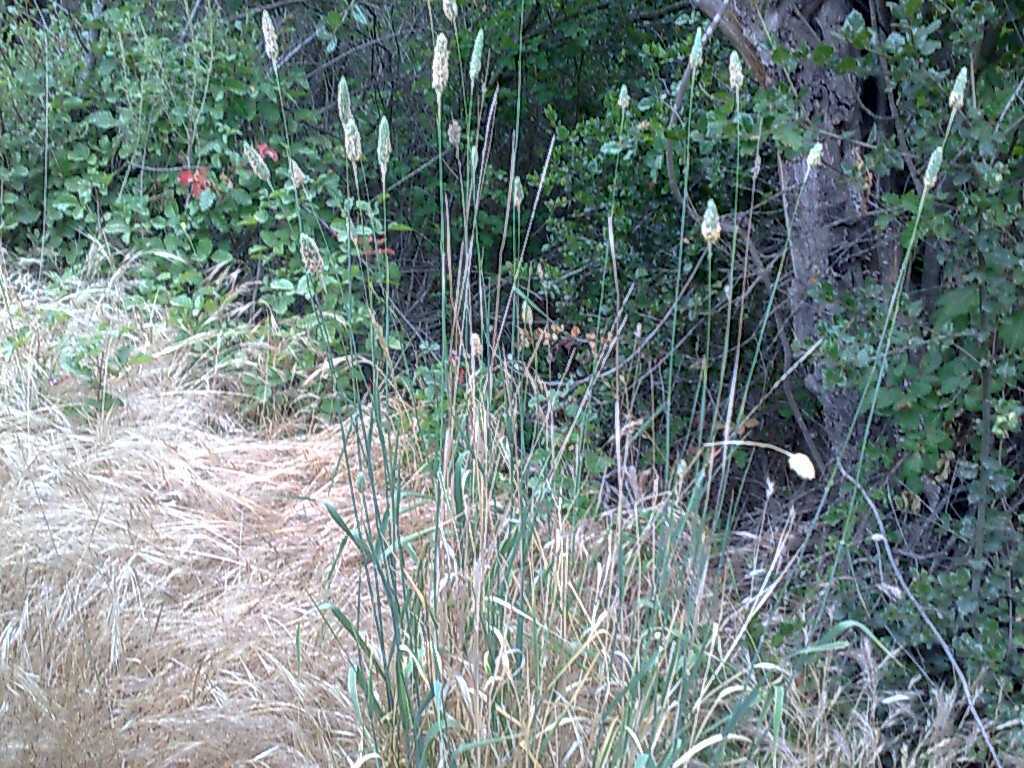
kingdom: Plantae
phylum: Tracheophyta
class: Magnoliopsida
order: Fagales
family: Fagaceae
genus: Quercus
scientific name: Quercus agrifolia
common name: California live oak
